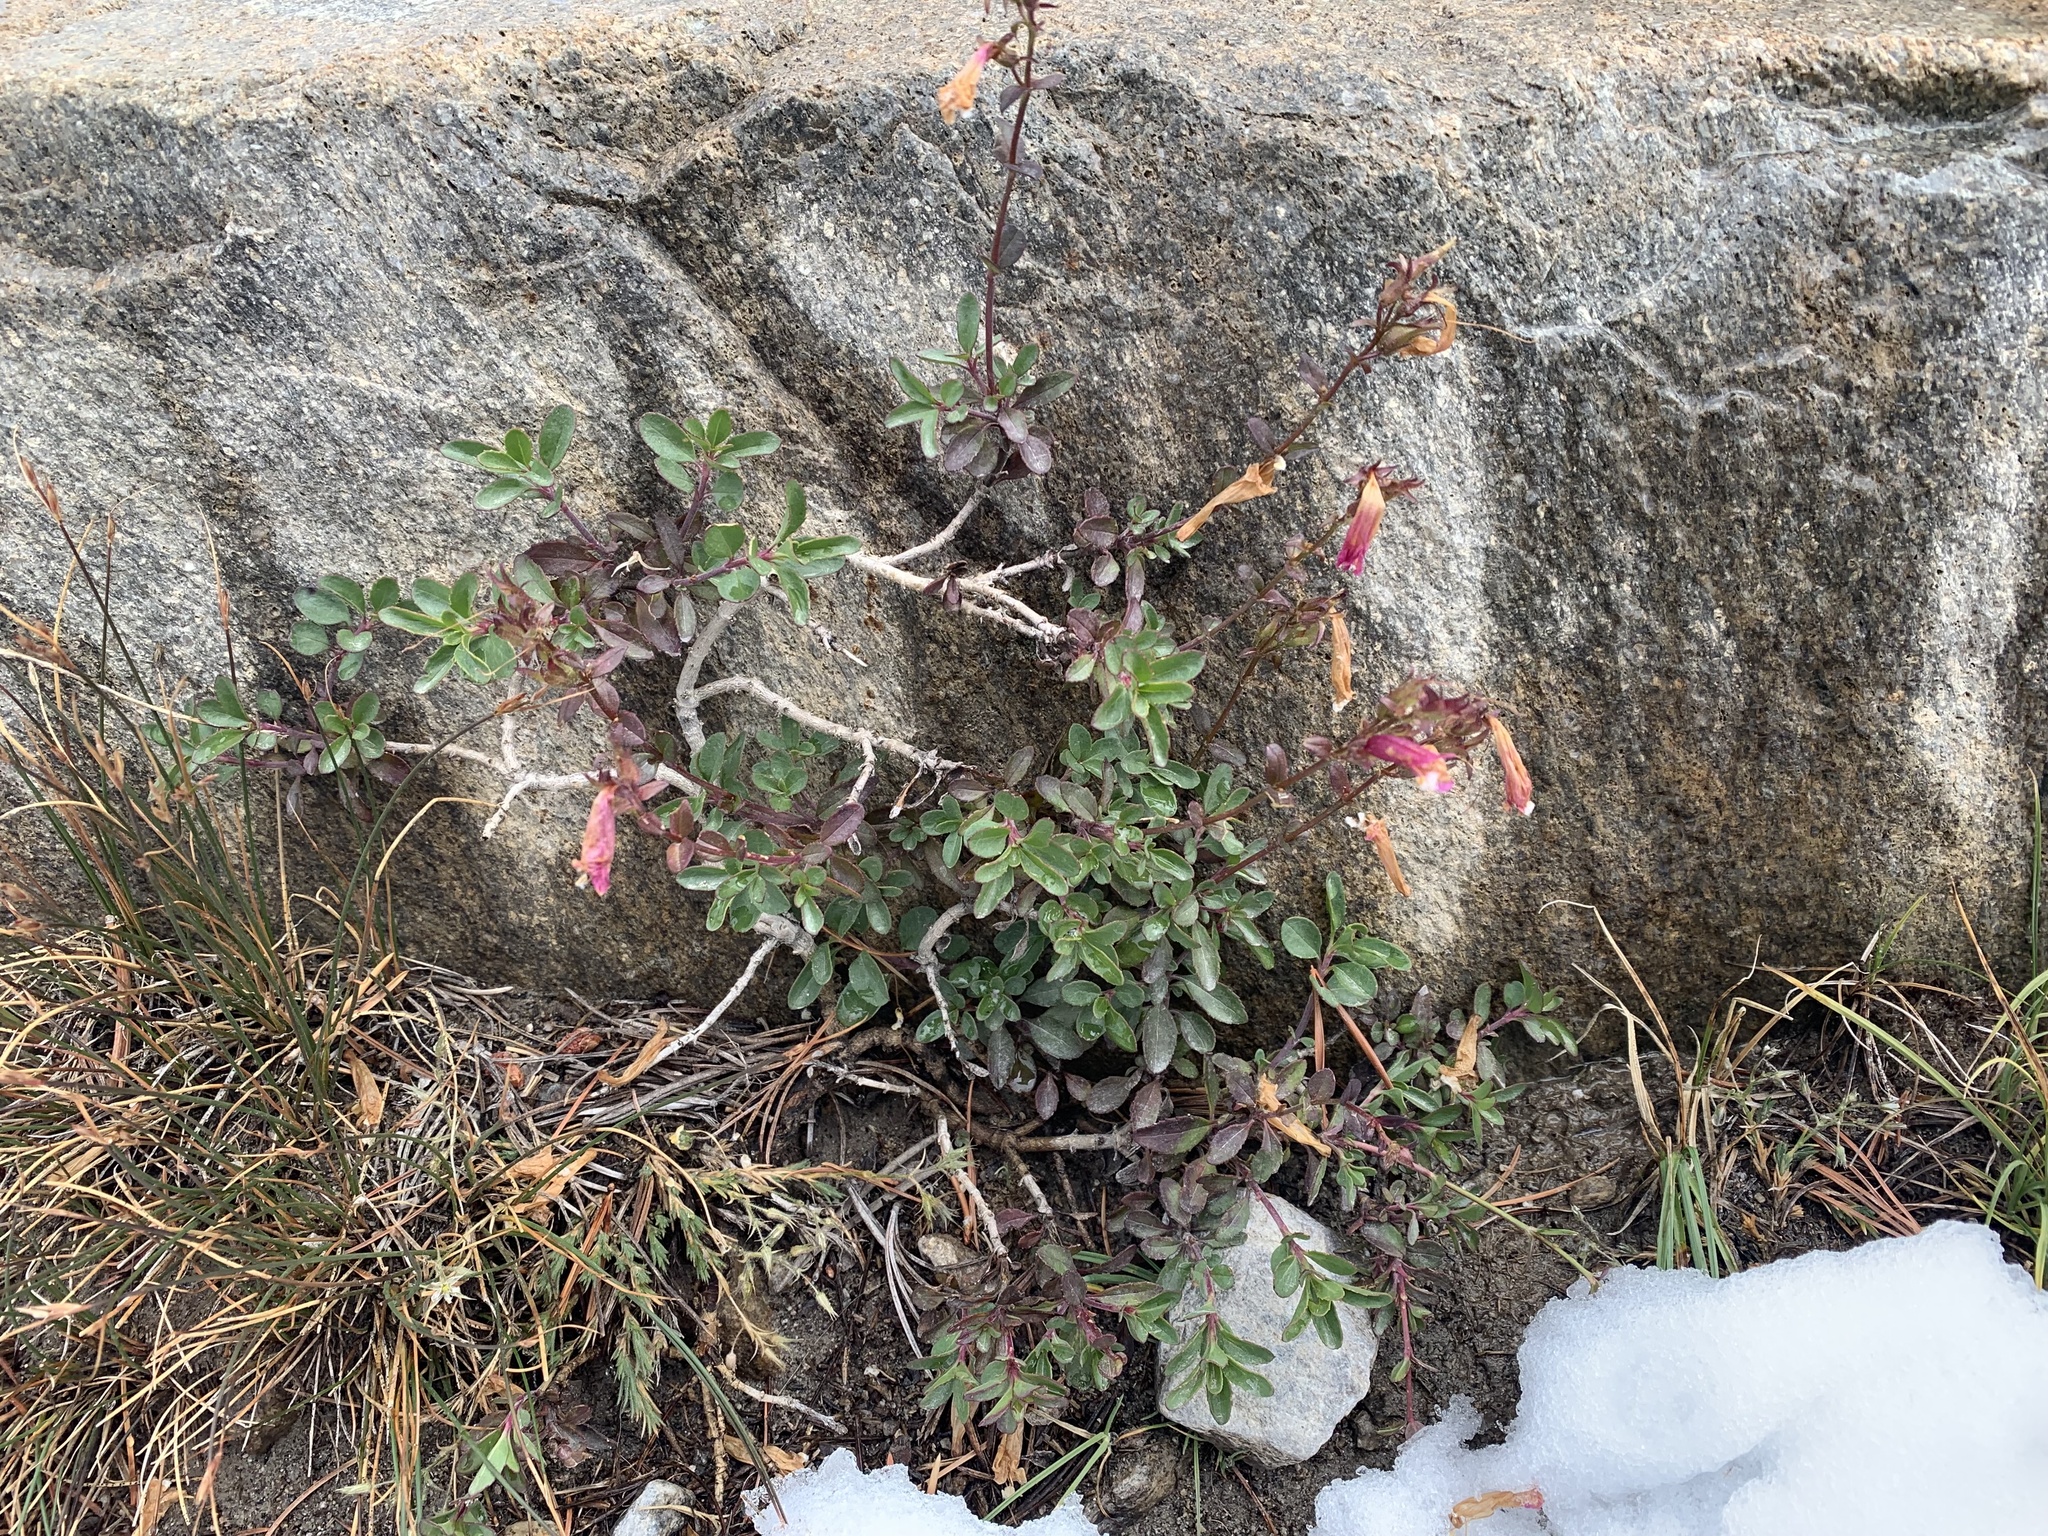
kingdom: Plantae
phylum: Tracheophyta
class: Magnoliopsida
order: Lamiales
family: Plantaginaceae
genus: Penstemon
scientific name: Penstemon newberryi
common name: Mountain-pride
